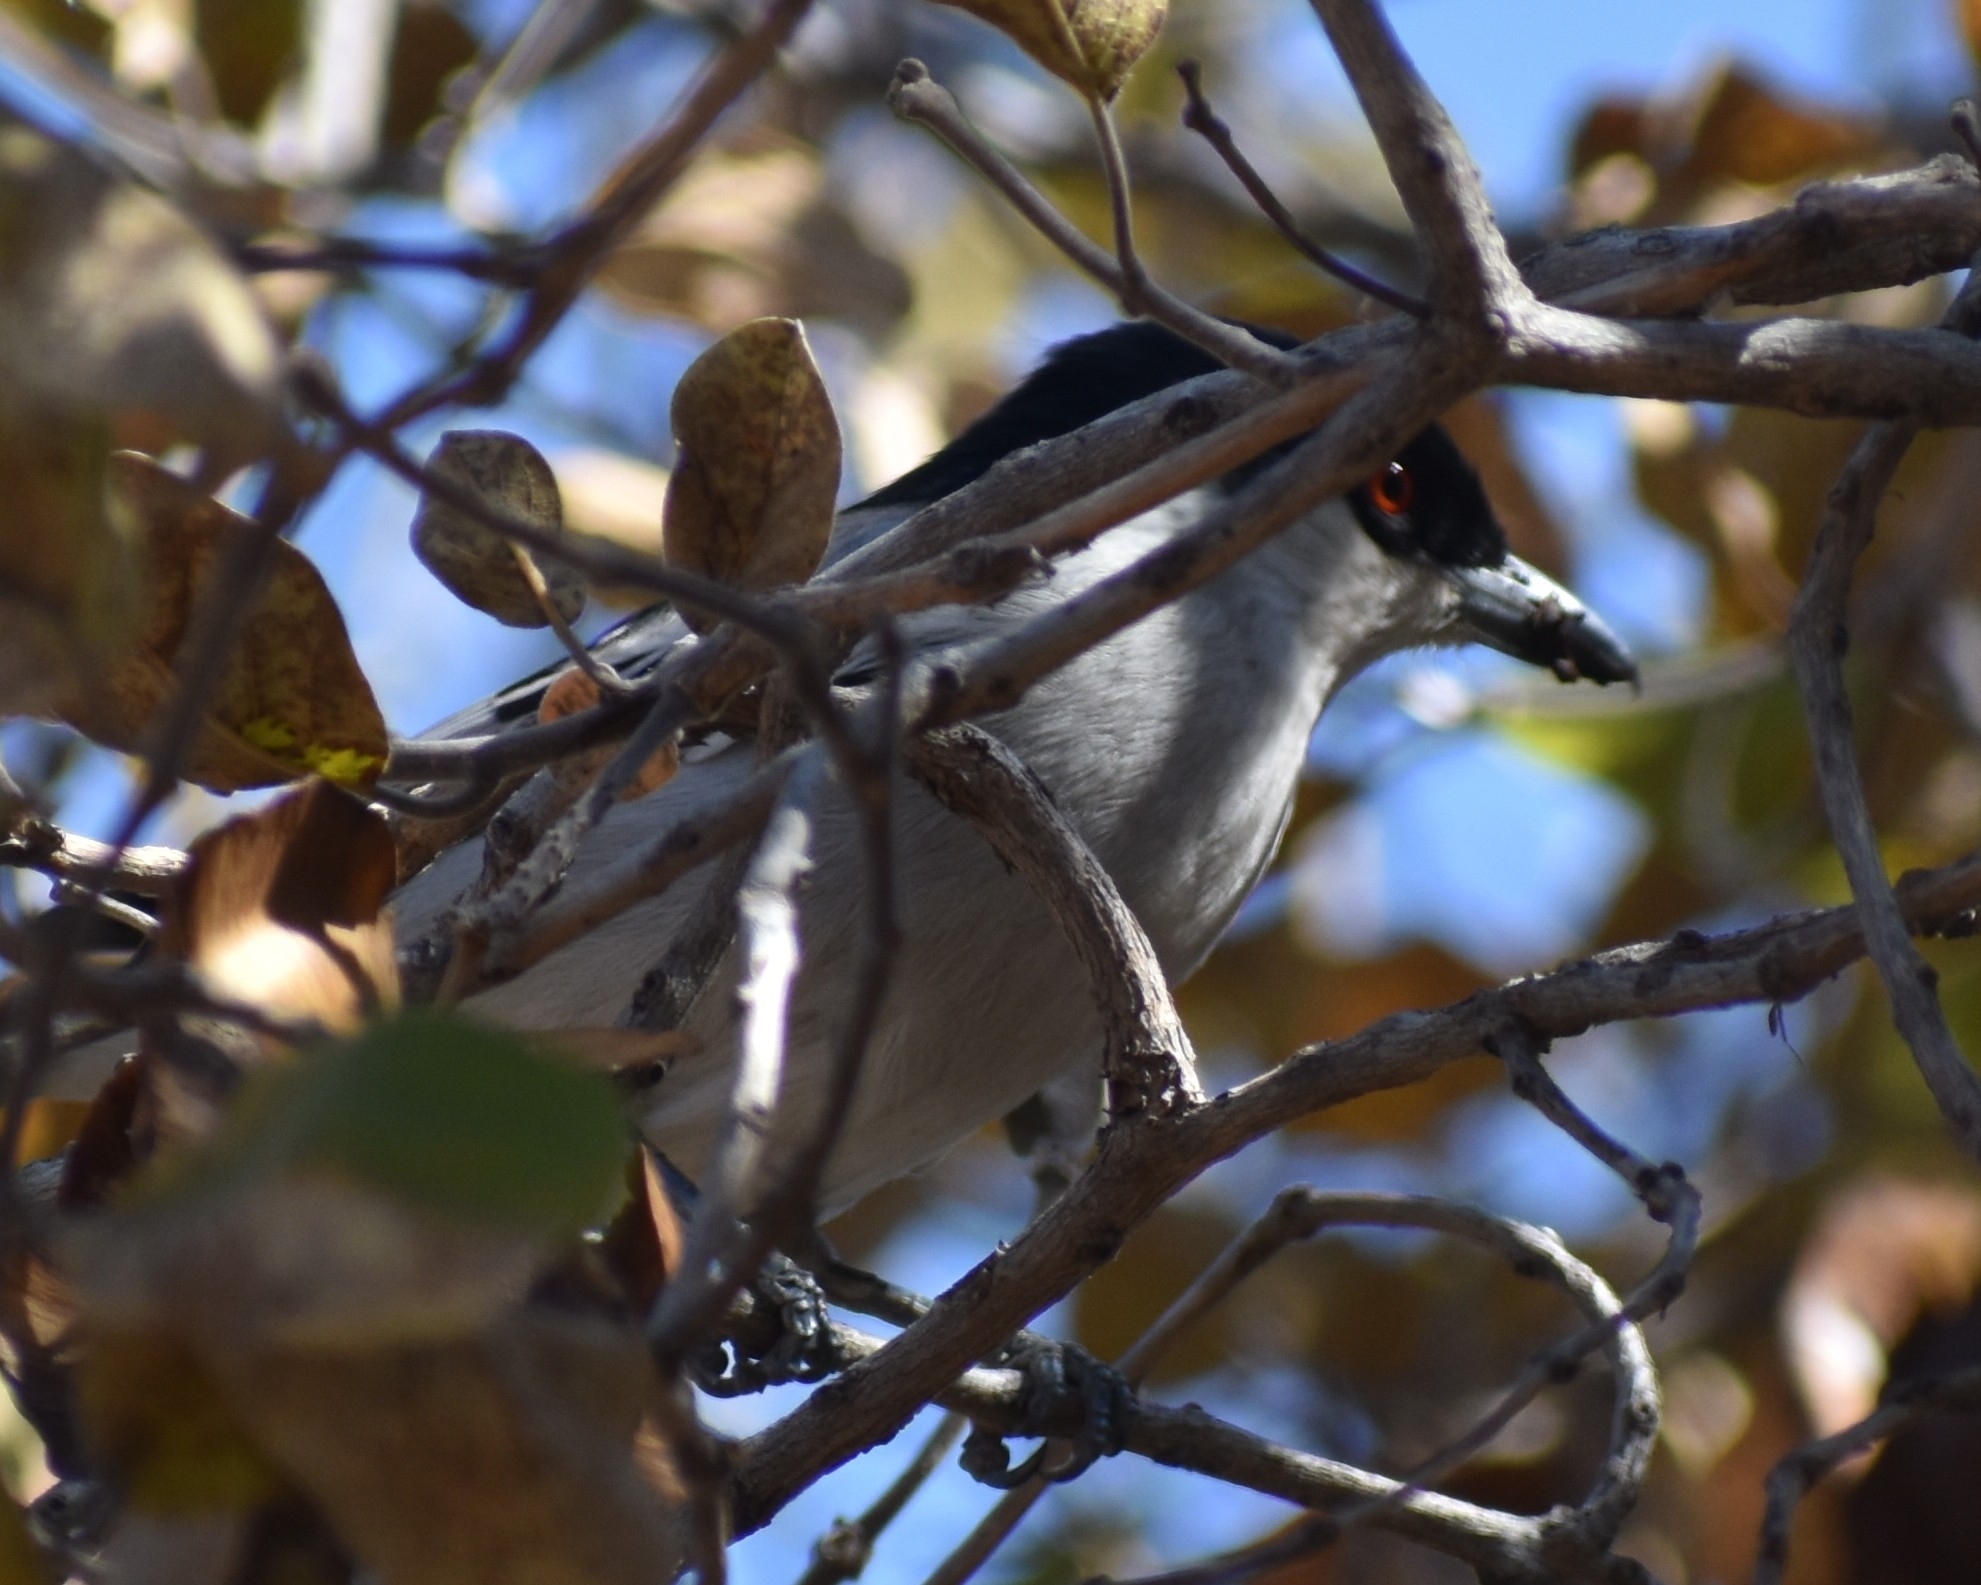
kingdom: Animalia
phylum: Chordata
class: Aves
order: Passeriformes
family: Malaconotidae
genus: Dryoscopus
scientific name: Dryoscopus cubla
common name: Black-backed puffback
